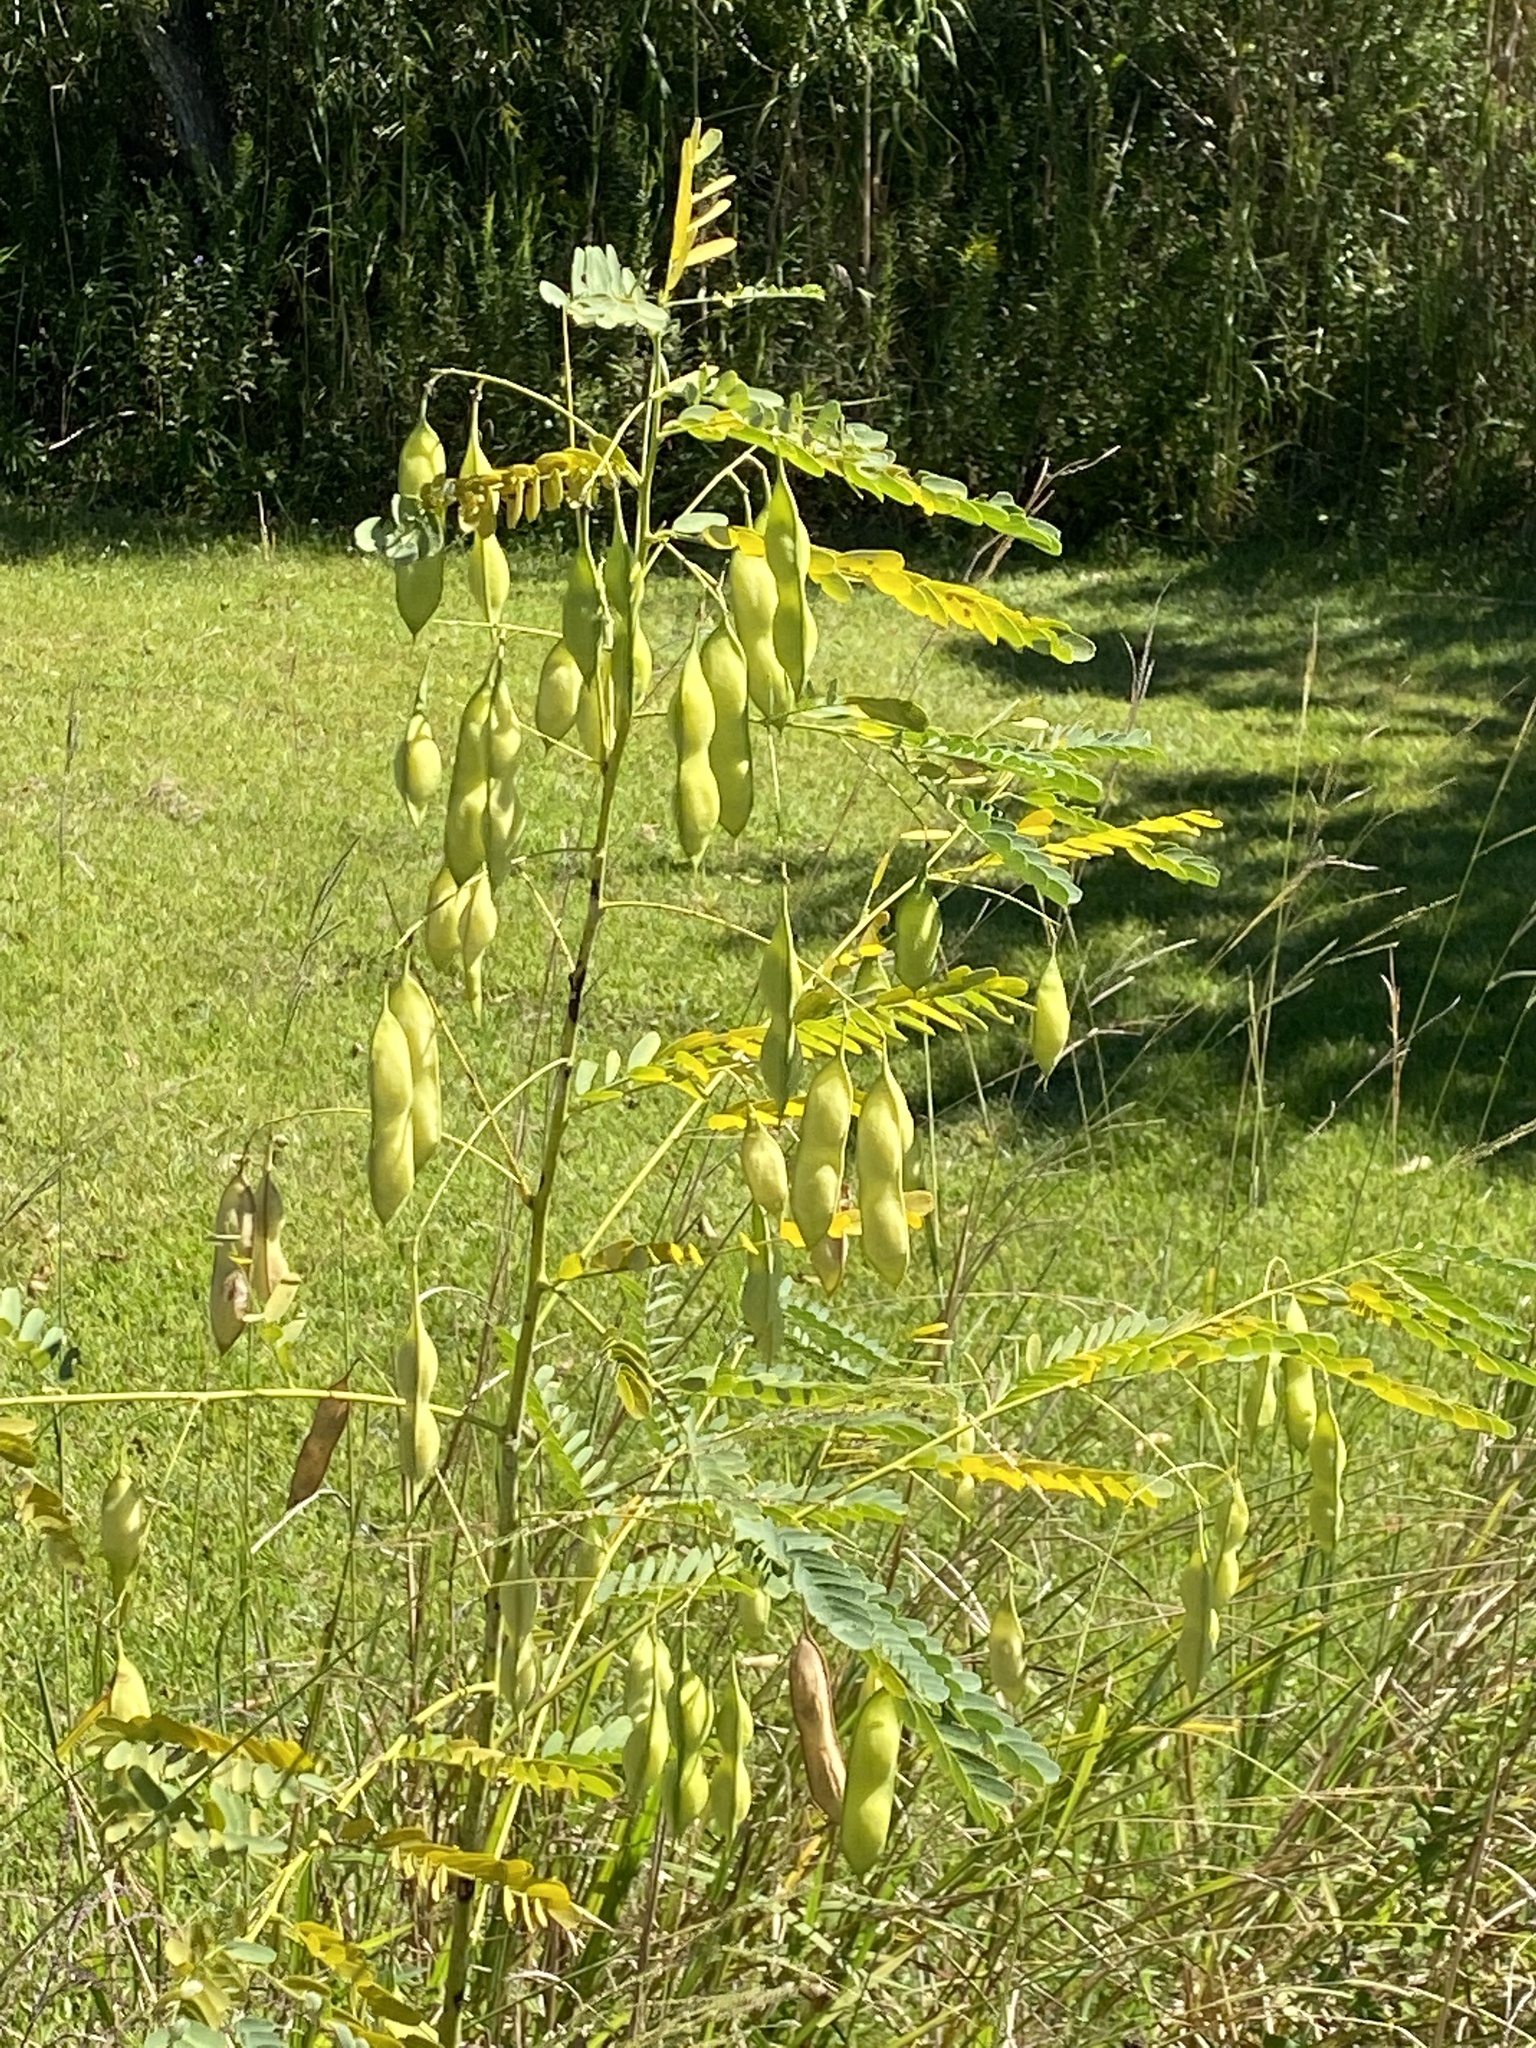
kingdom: Plantae
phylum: Tracheophyta
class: Magnoliopsida
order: Fabales
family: Fabaceae
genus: Sesbania
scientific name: Sesbania vesicaria
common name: Bagpod
